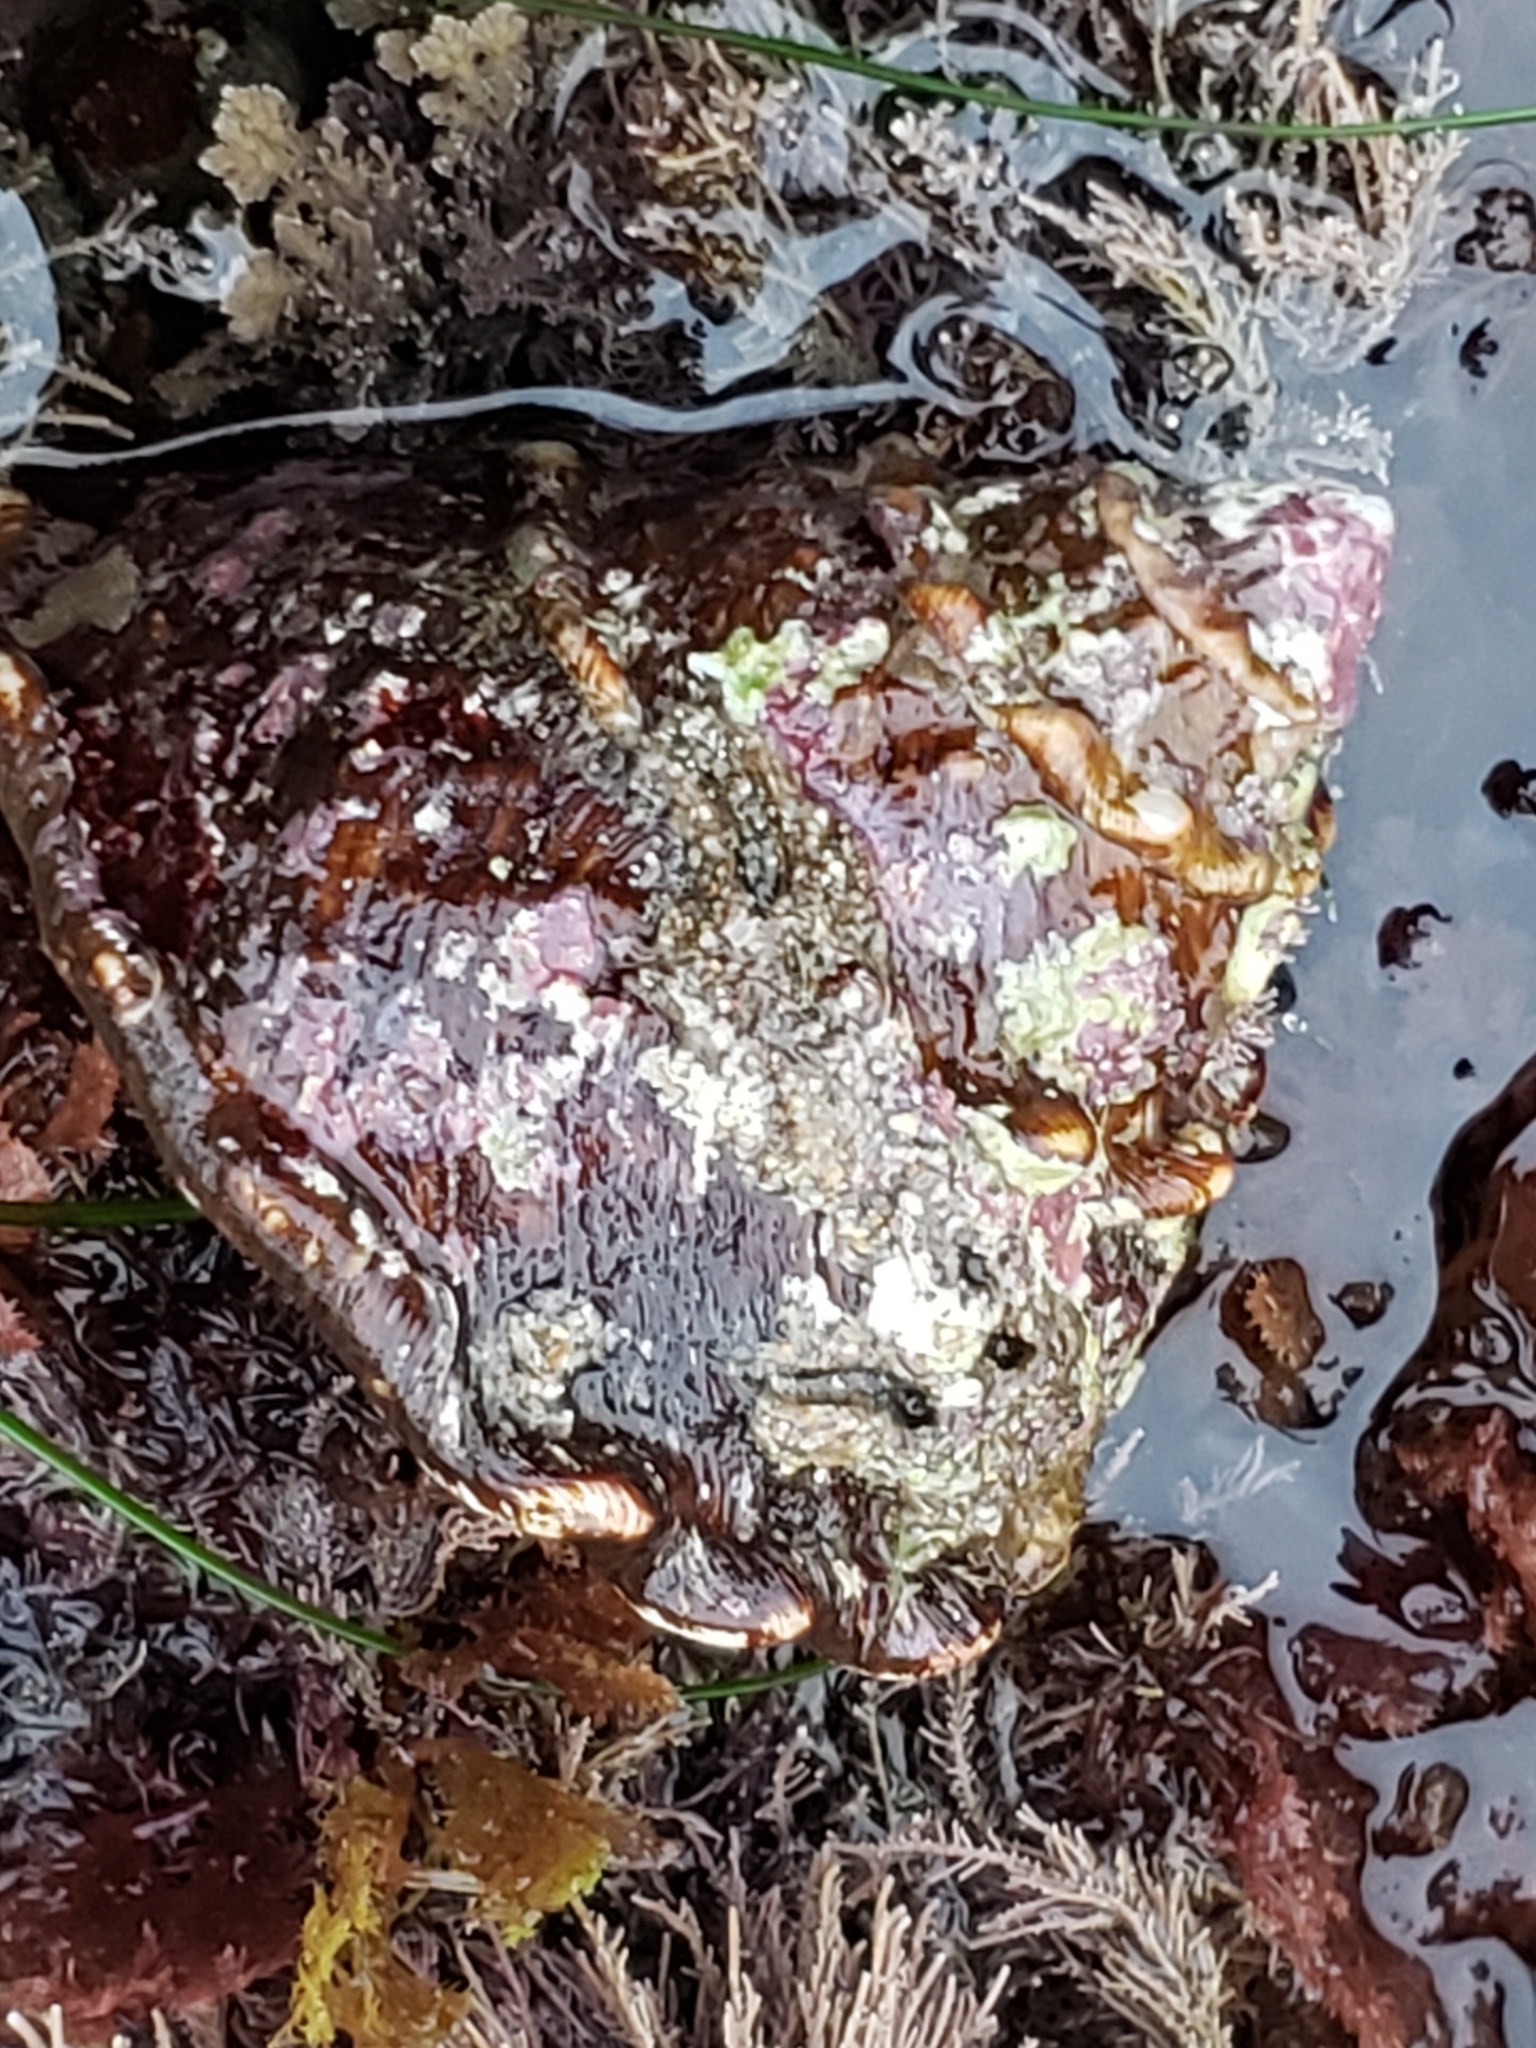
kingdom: Animalia
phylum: Mollusca
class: Gastropoda
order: Trochida
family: Turbinidae
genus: Megastraea
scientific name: Megastraea undosa
